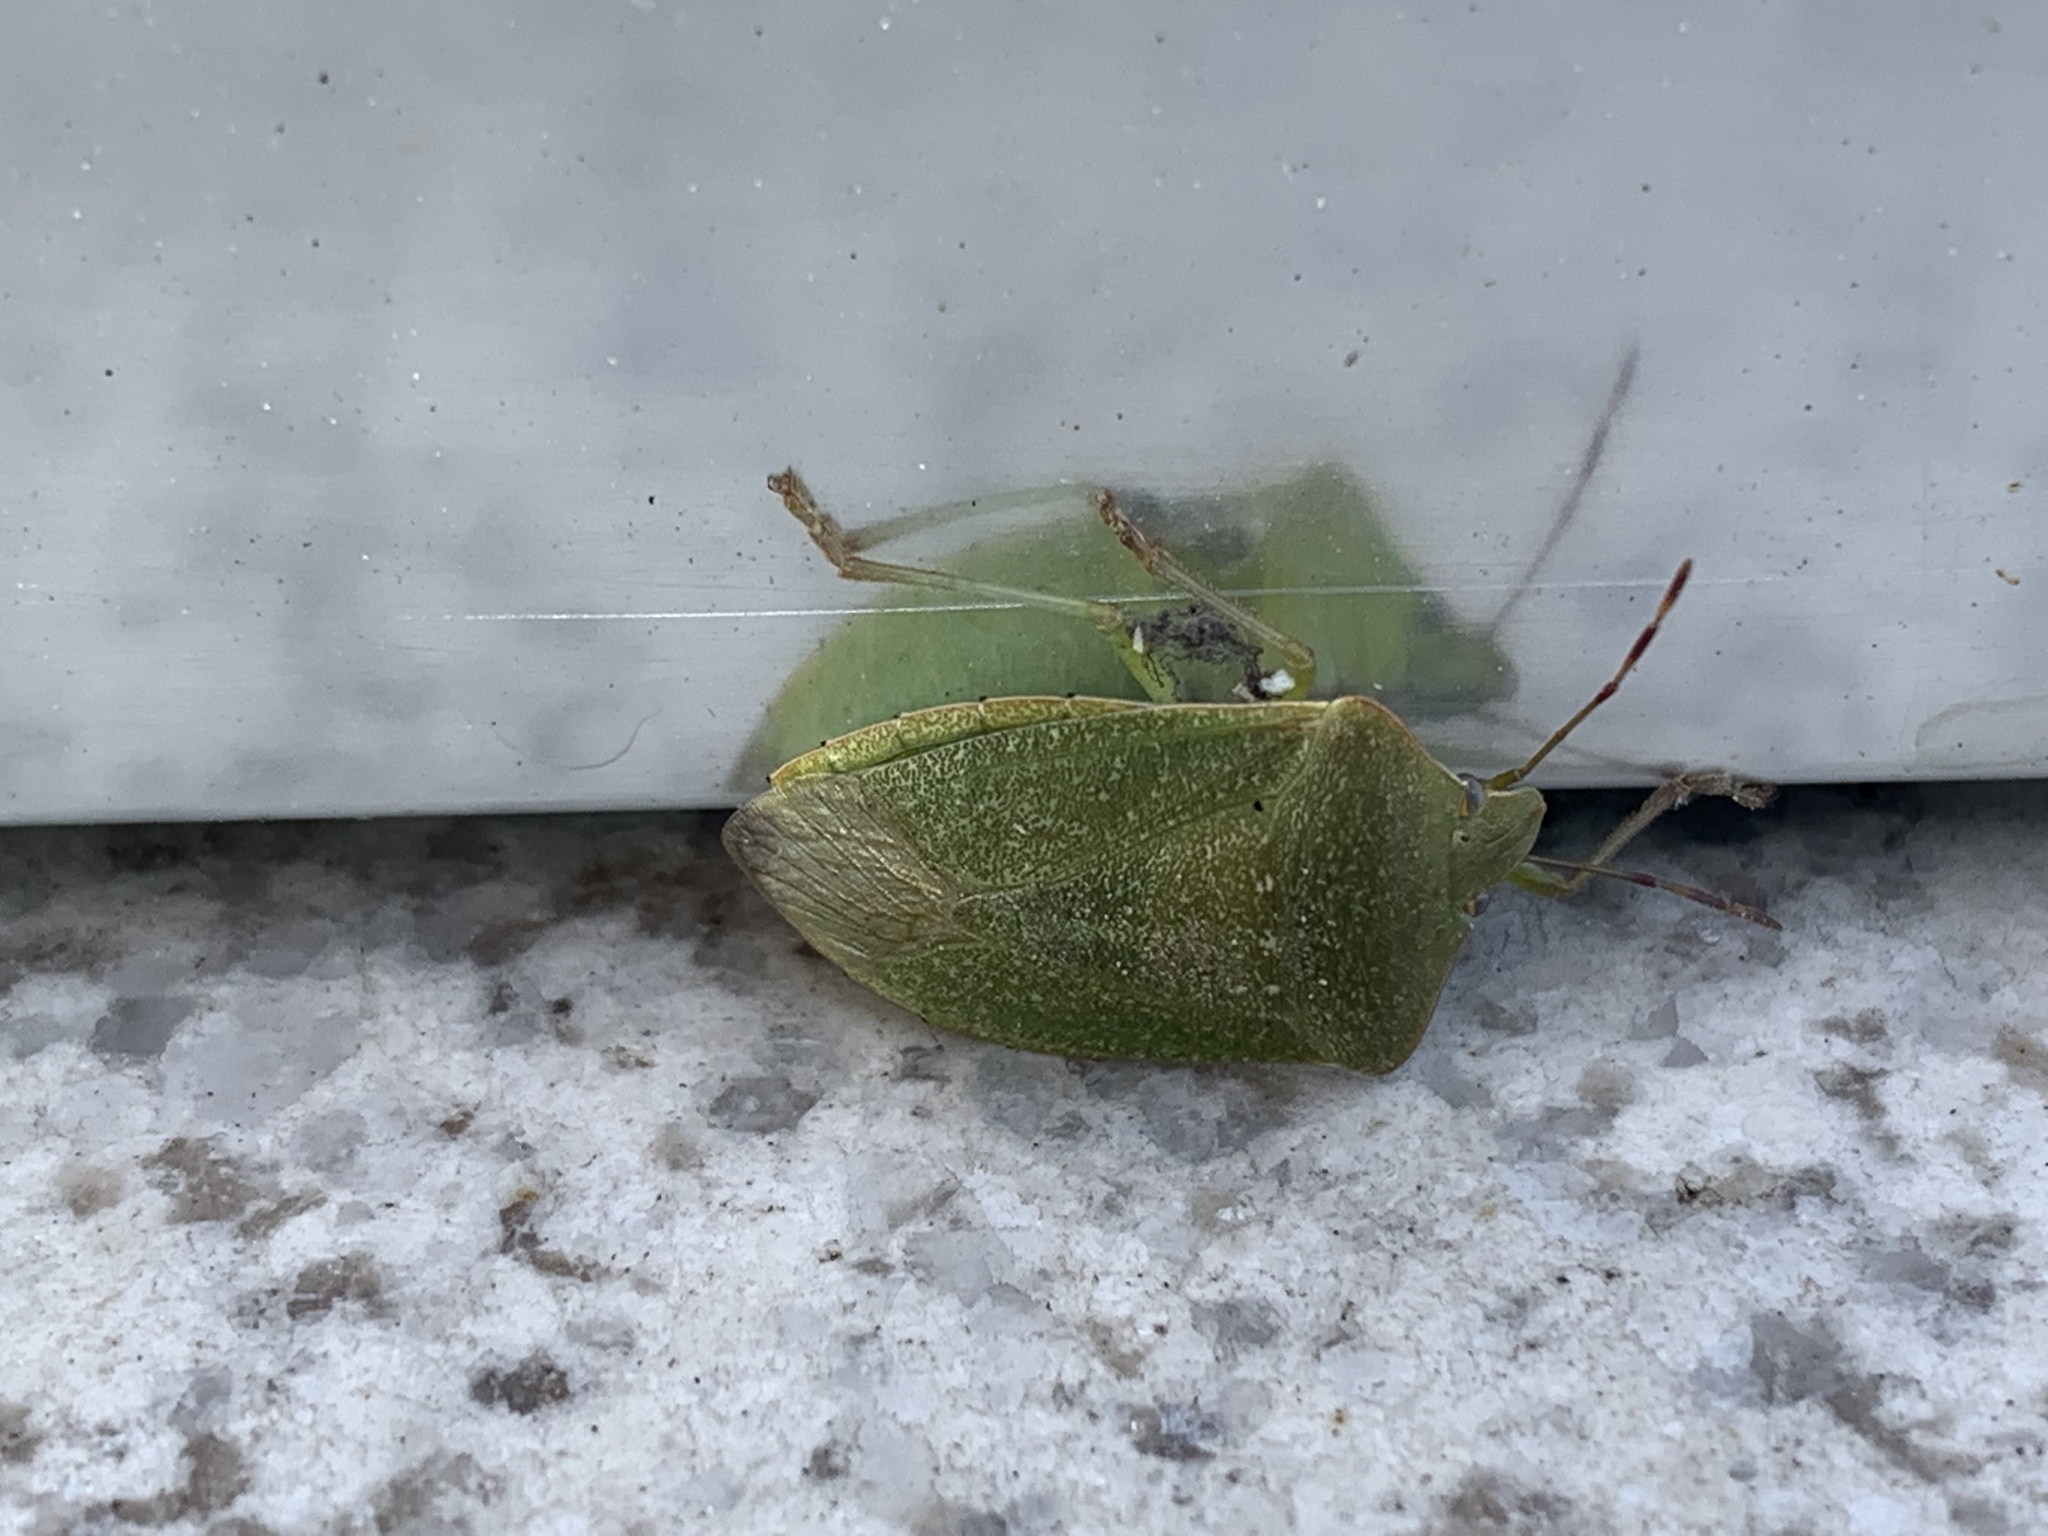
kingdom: Animalia
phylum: Arthropoda
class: Insecta
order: Hemiptera
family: Pentatomidae
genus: Nezara
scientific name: Nezara viridula
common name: Southern green stink bug
